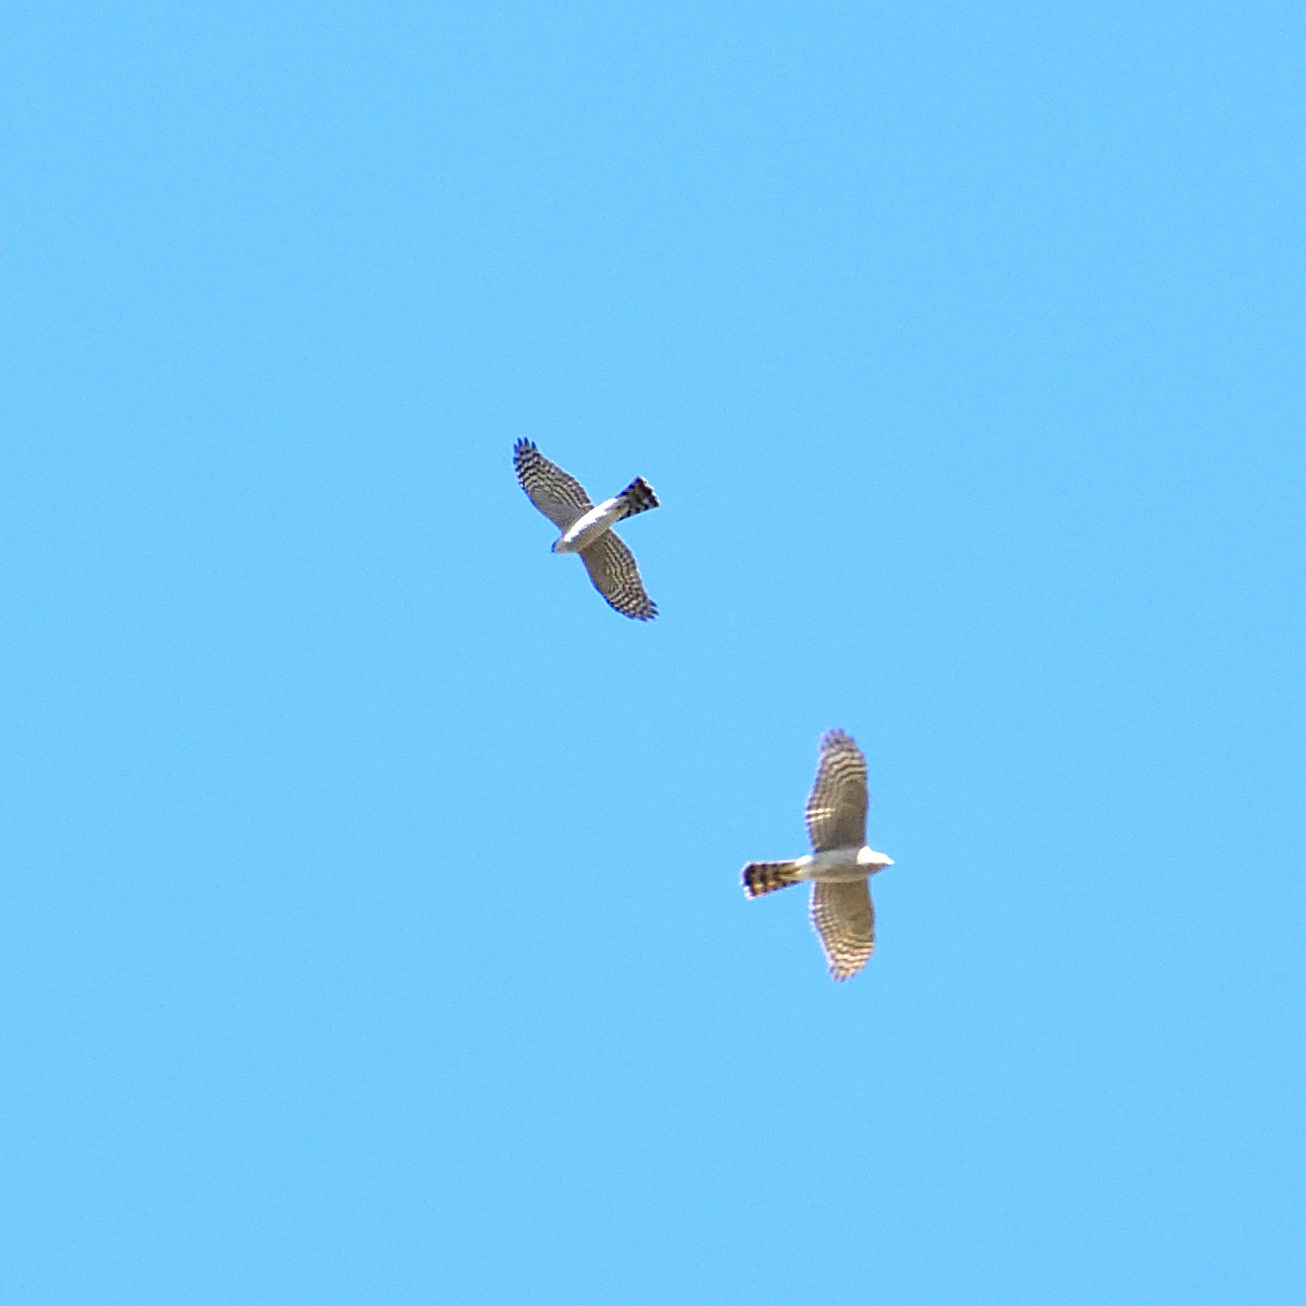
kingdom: Animalia
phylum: Chordata
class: Aves
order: Accipitriformes
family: Accipitridae
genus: Accipiter
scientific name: Accipiter nisus
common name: Eurasian sparrowhawk
